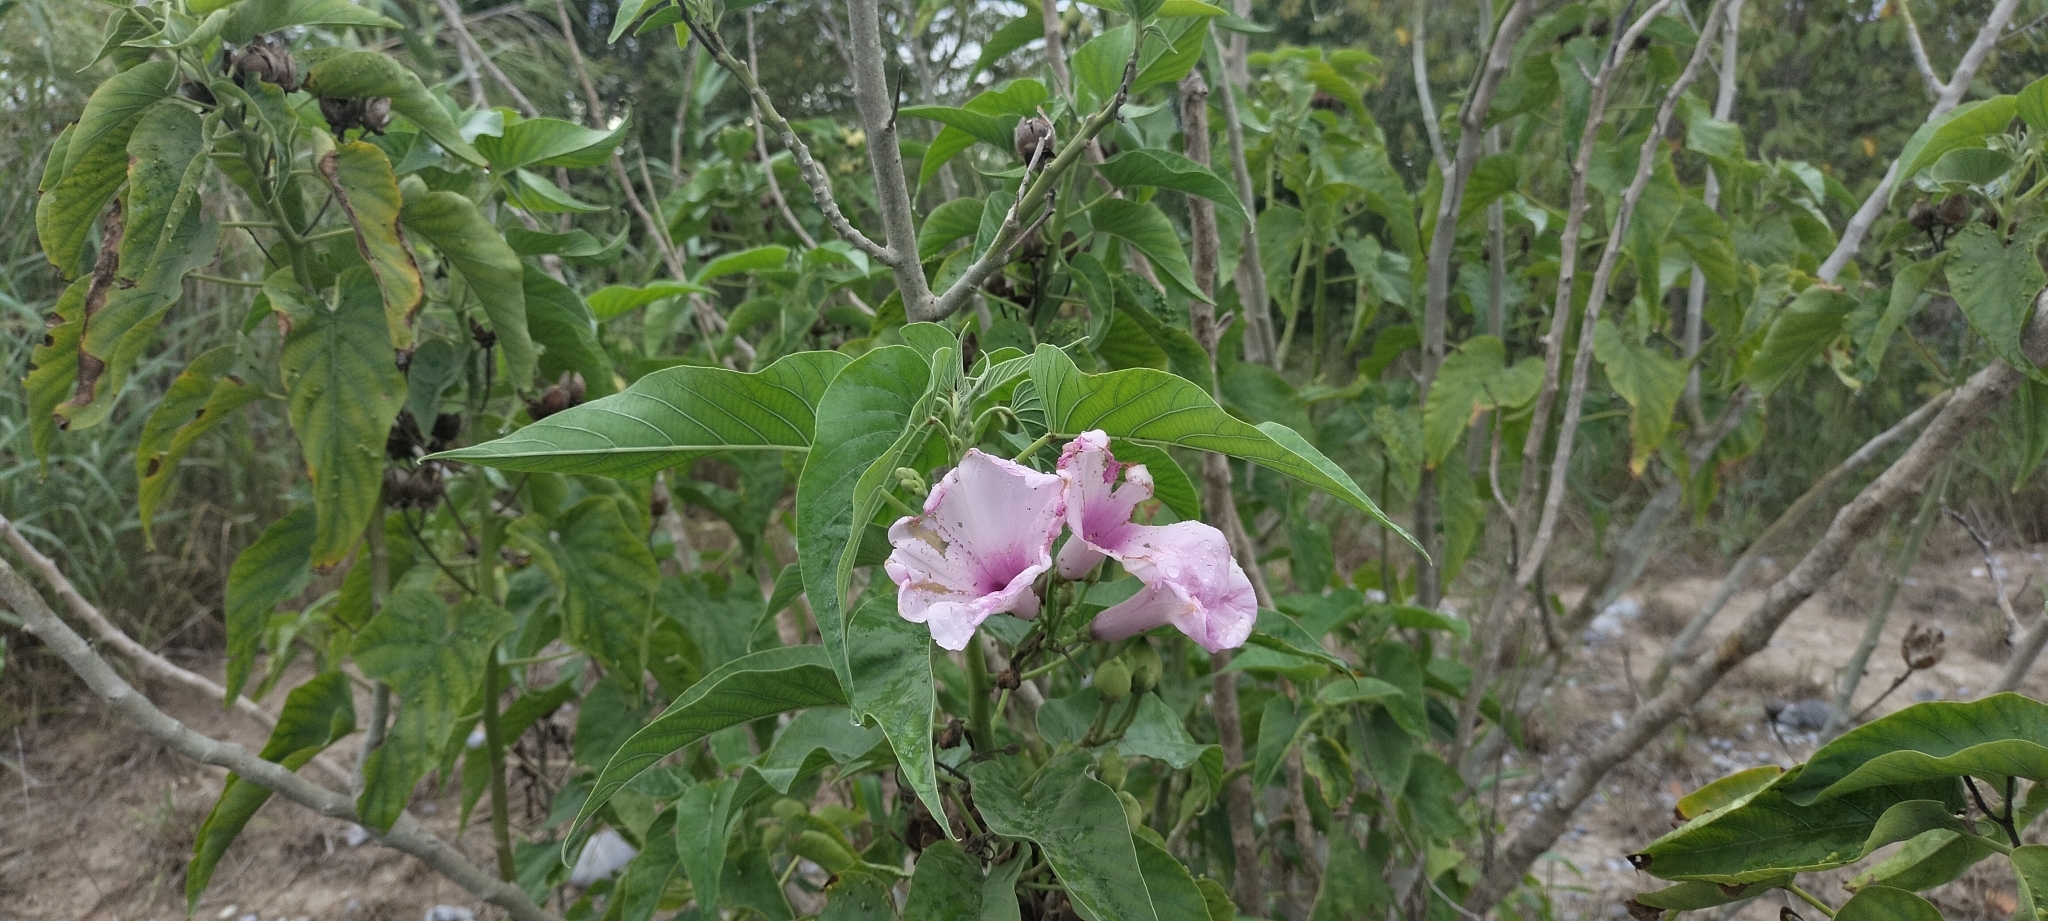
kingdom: Plantae
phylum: Tracheophyta
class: Magnoliopsida
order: Solanales
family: Convolvulaceae
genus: Ipomoea
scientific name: Ipomoea carnea
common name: Morning-glory
